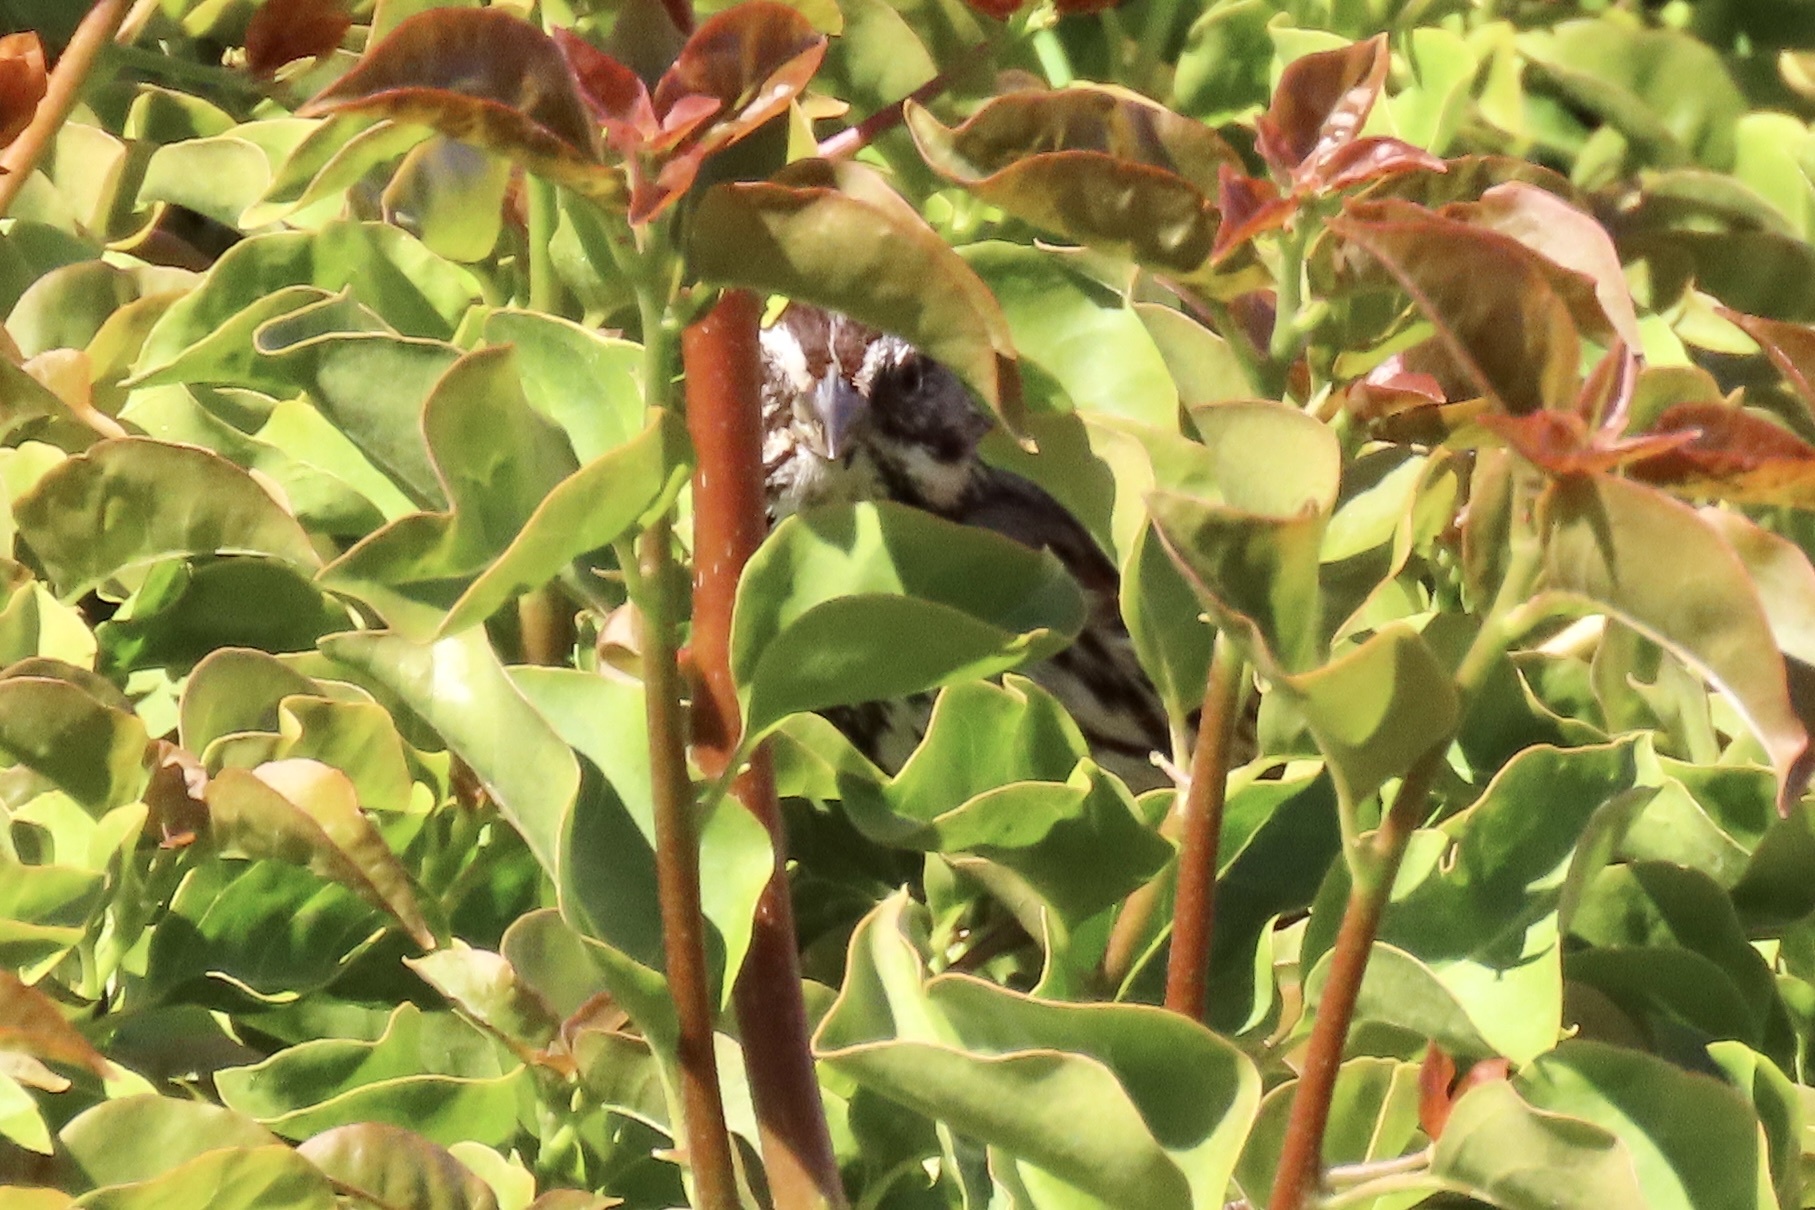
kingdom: Animalia
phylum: Chordata
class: Aves
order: Passeriformes
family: Passerellidae
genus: Melospiza
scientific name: Melospiza melodia
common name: Song sparrow
